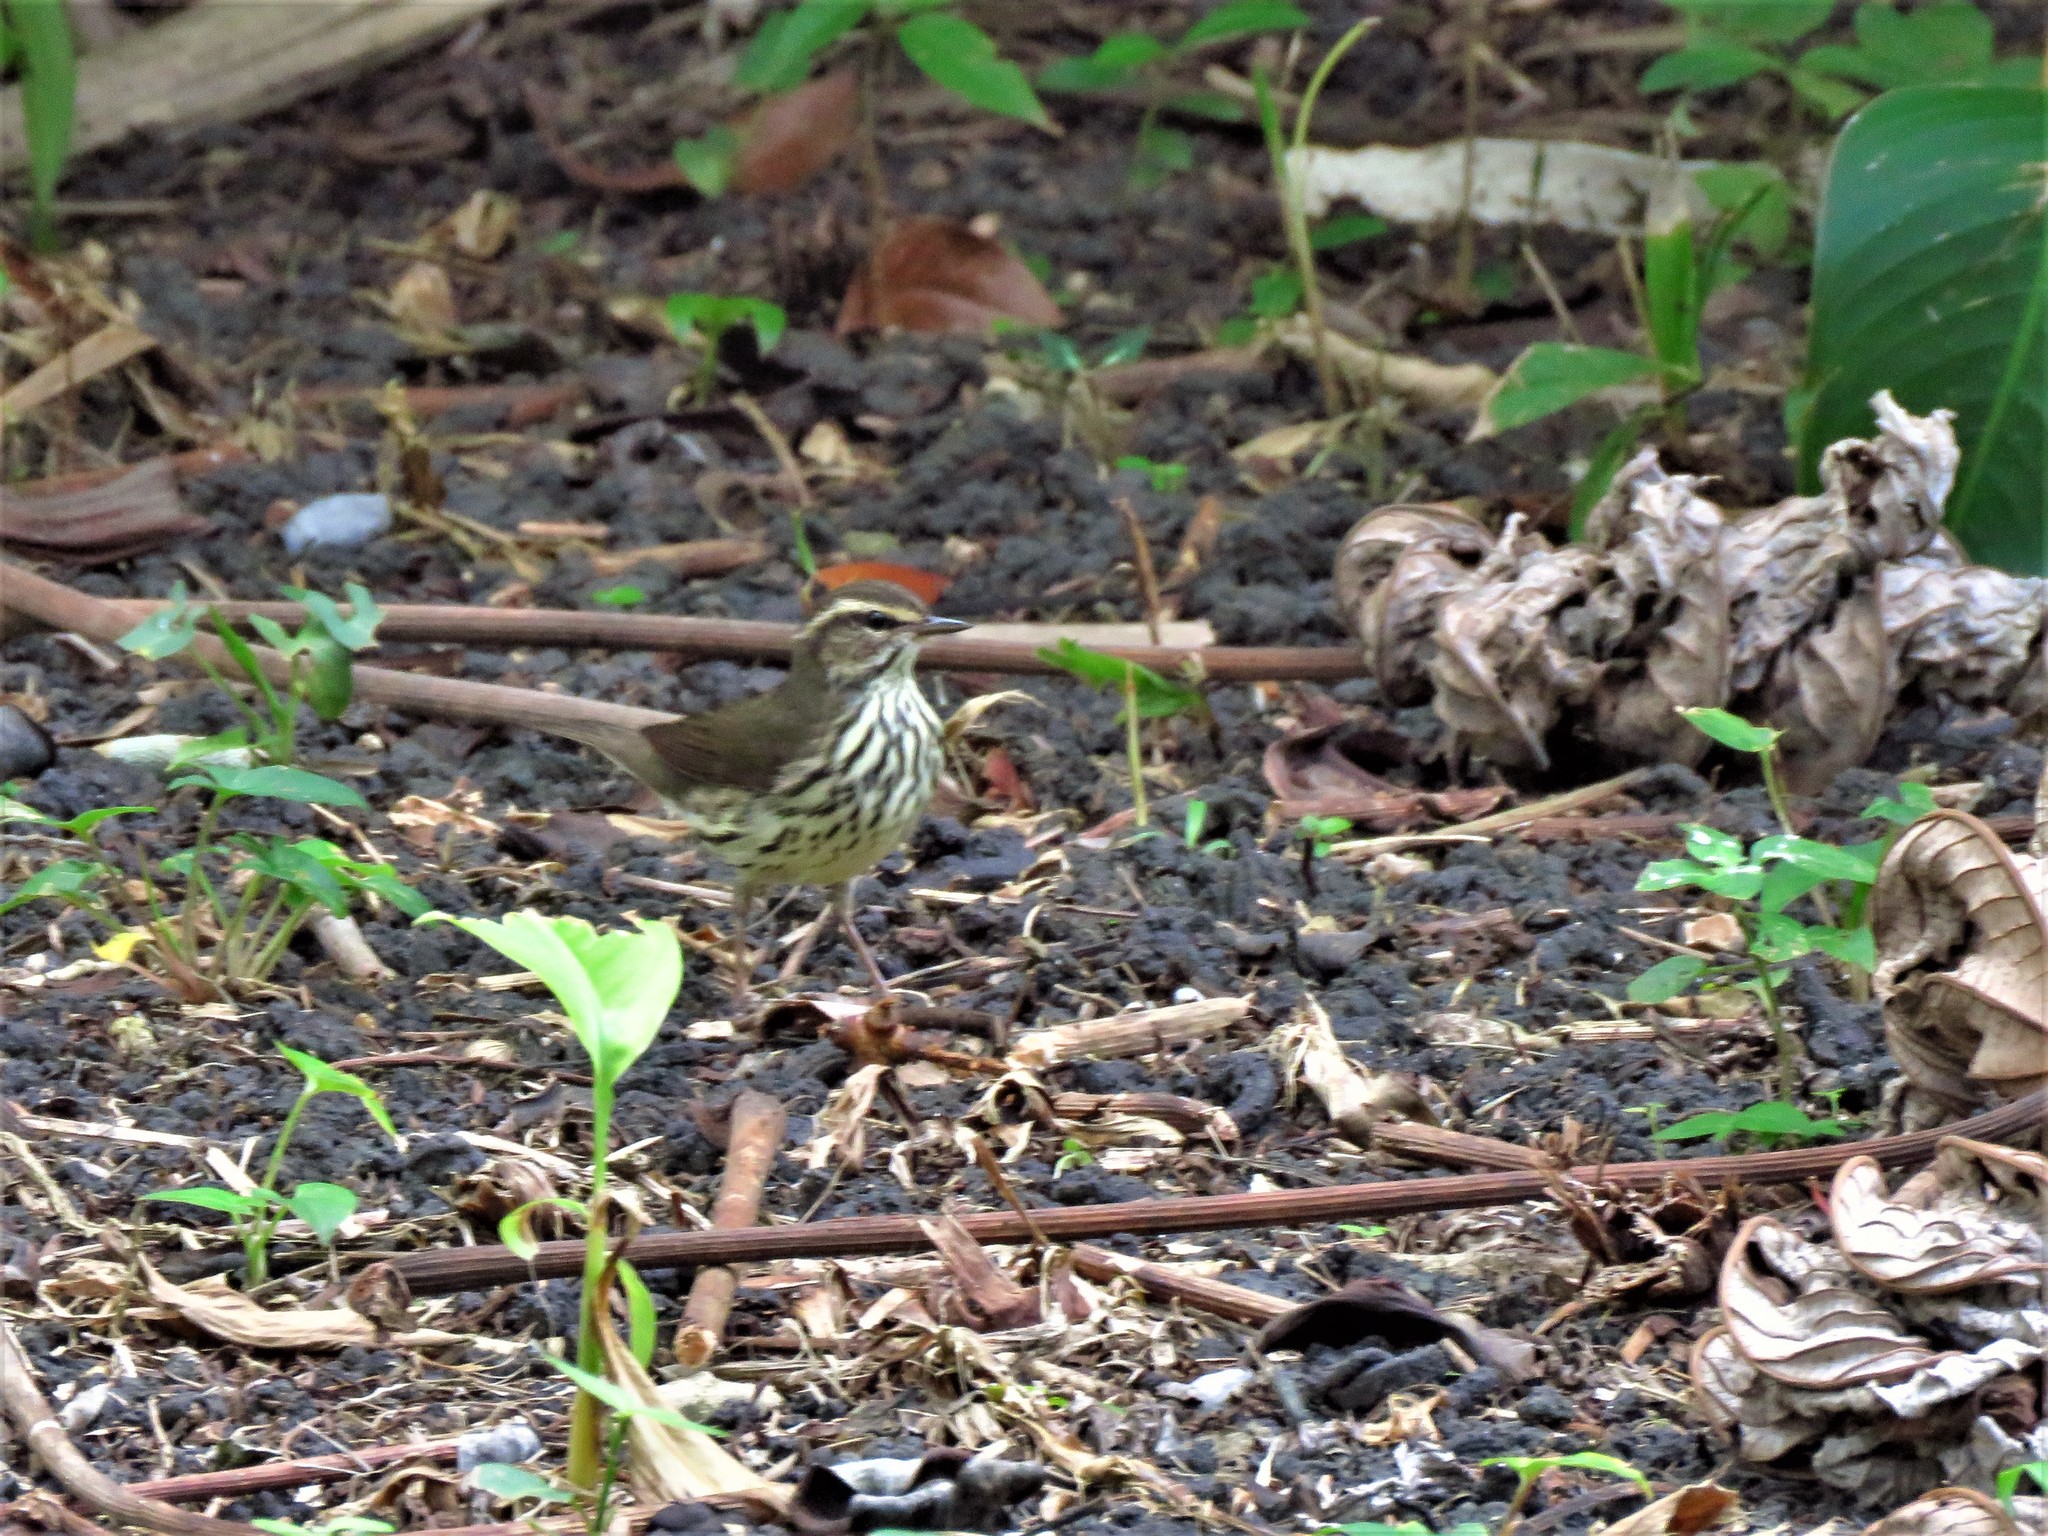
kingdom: Animalia
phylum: Chordata
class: Aves
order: Passeriformes
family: Parulidae
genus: Parkesia
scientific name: Parkesia noveboracensis
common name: Northern waterthrush
